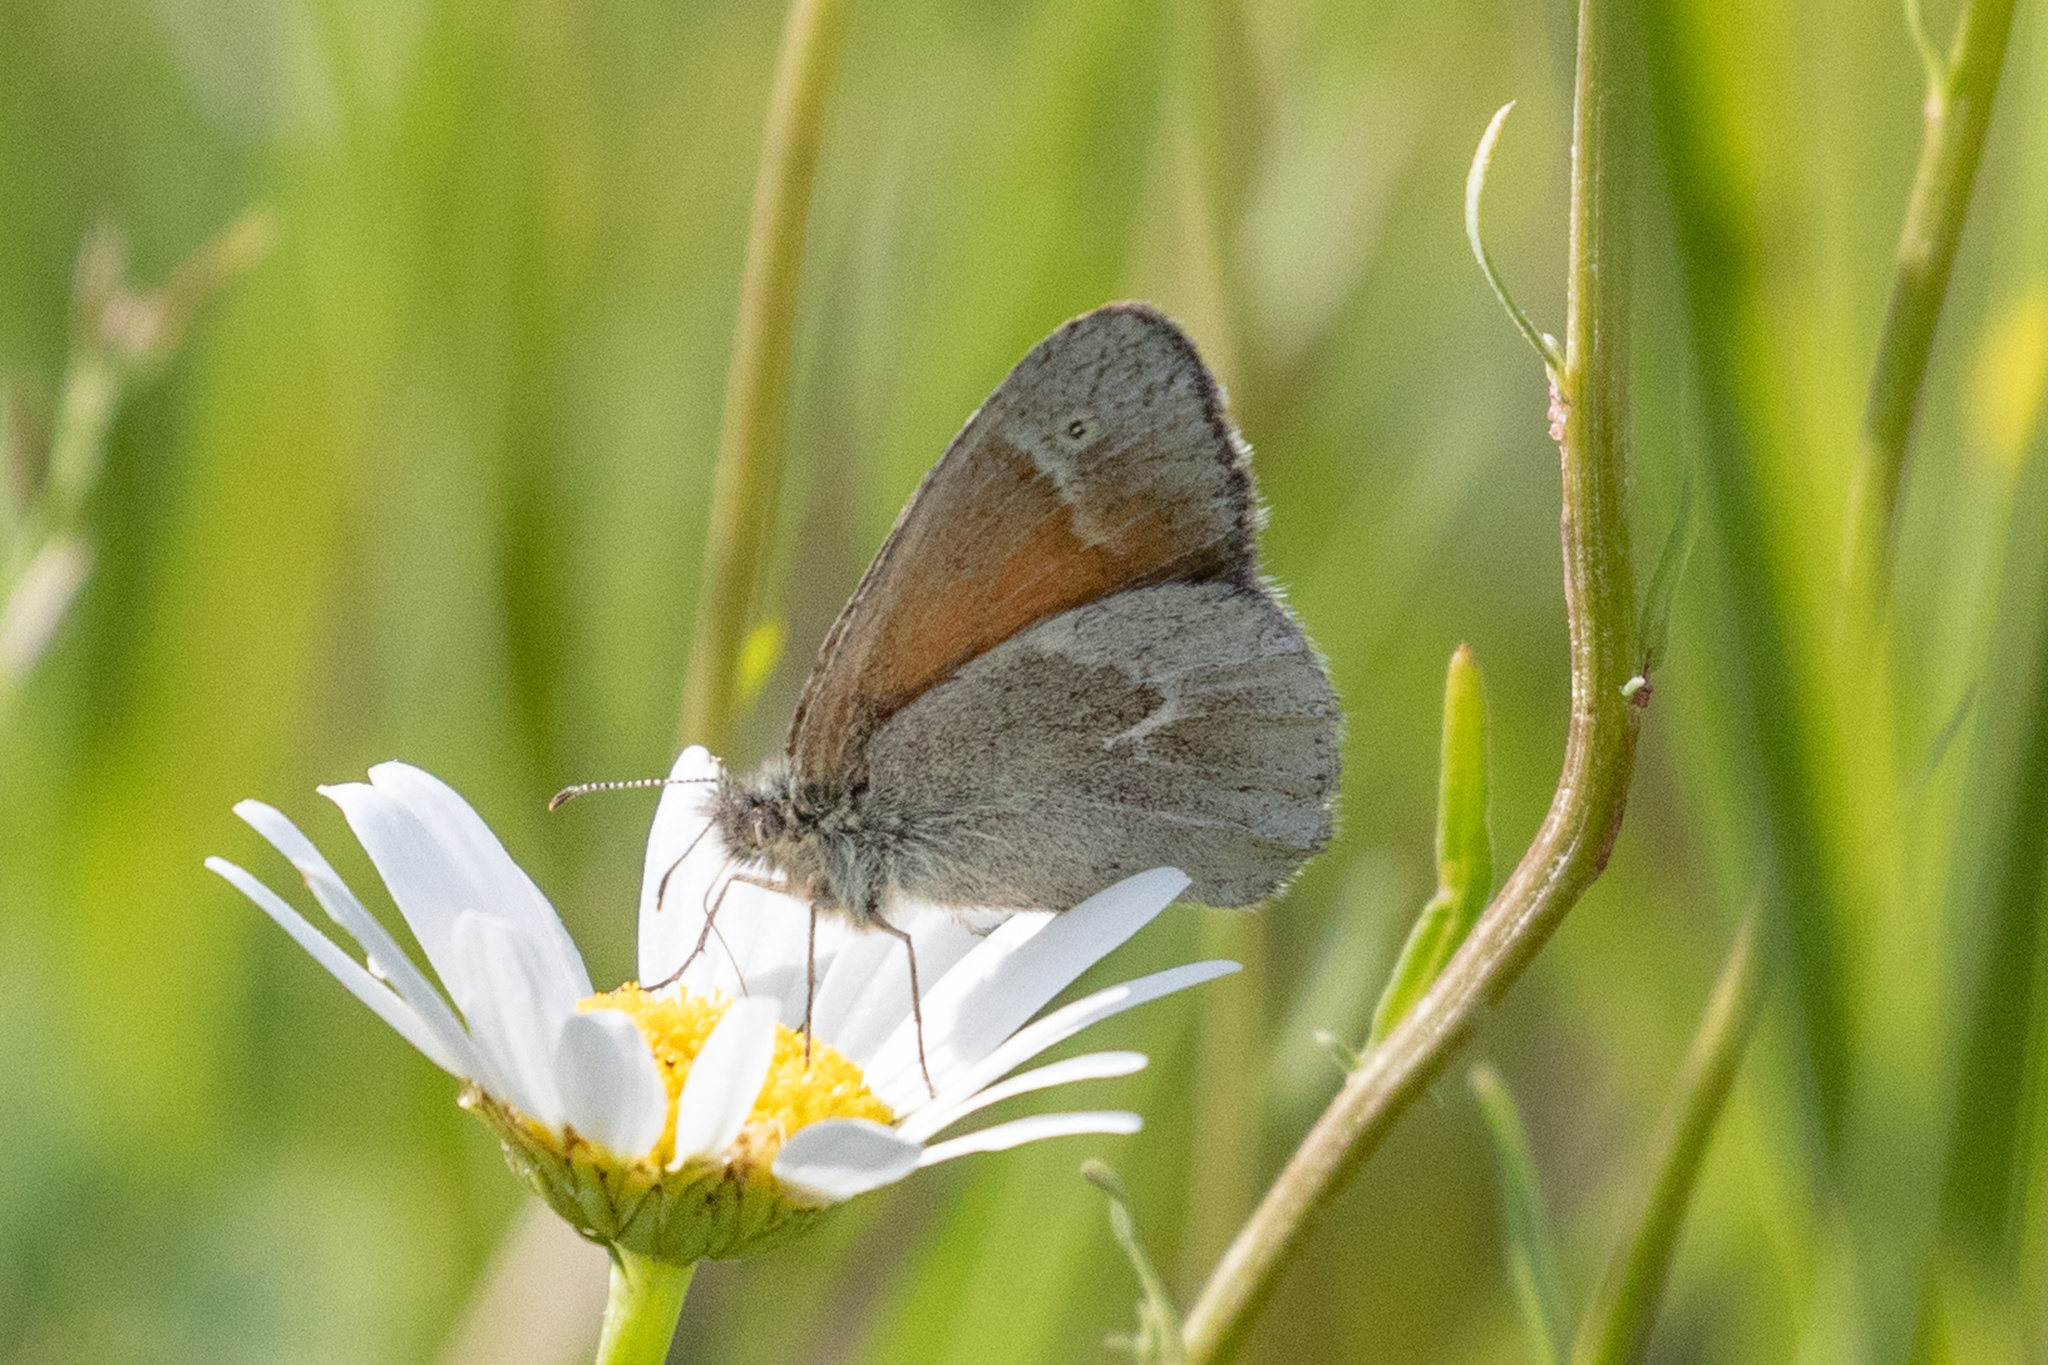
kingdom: Animalia
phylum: Arthropoda
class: Insecta
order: Lepidoptera
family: Nymphalidae
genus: Coenonympha
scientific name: Coenonympha california
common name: Common ringlet
